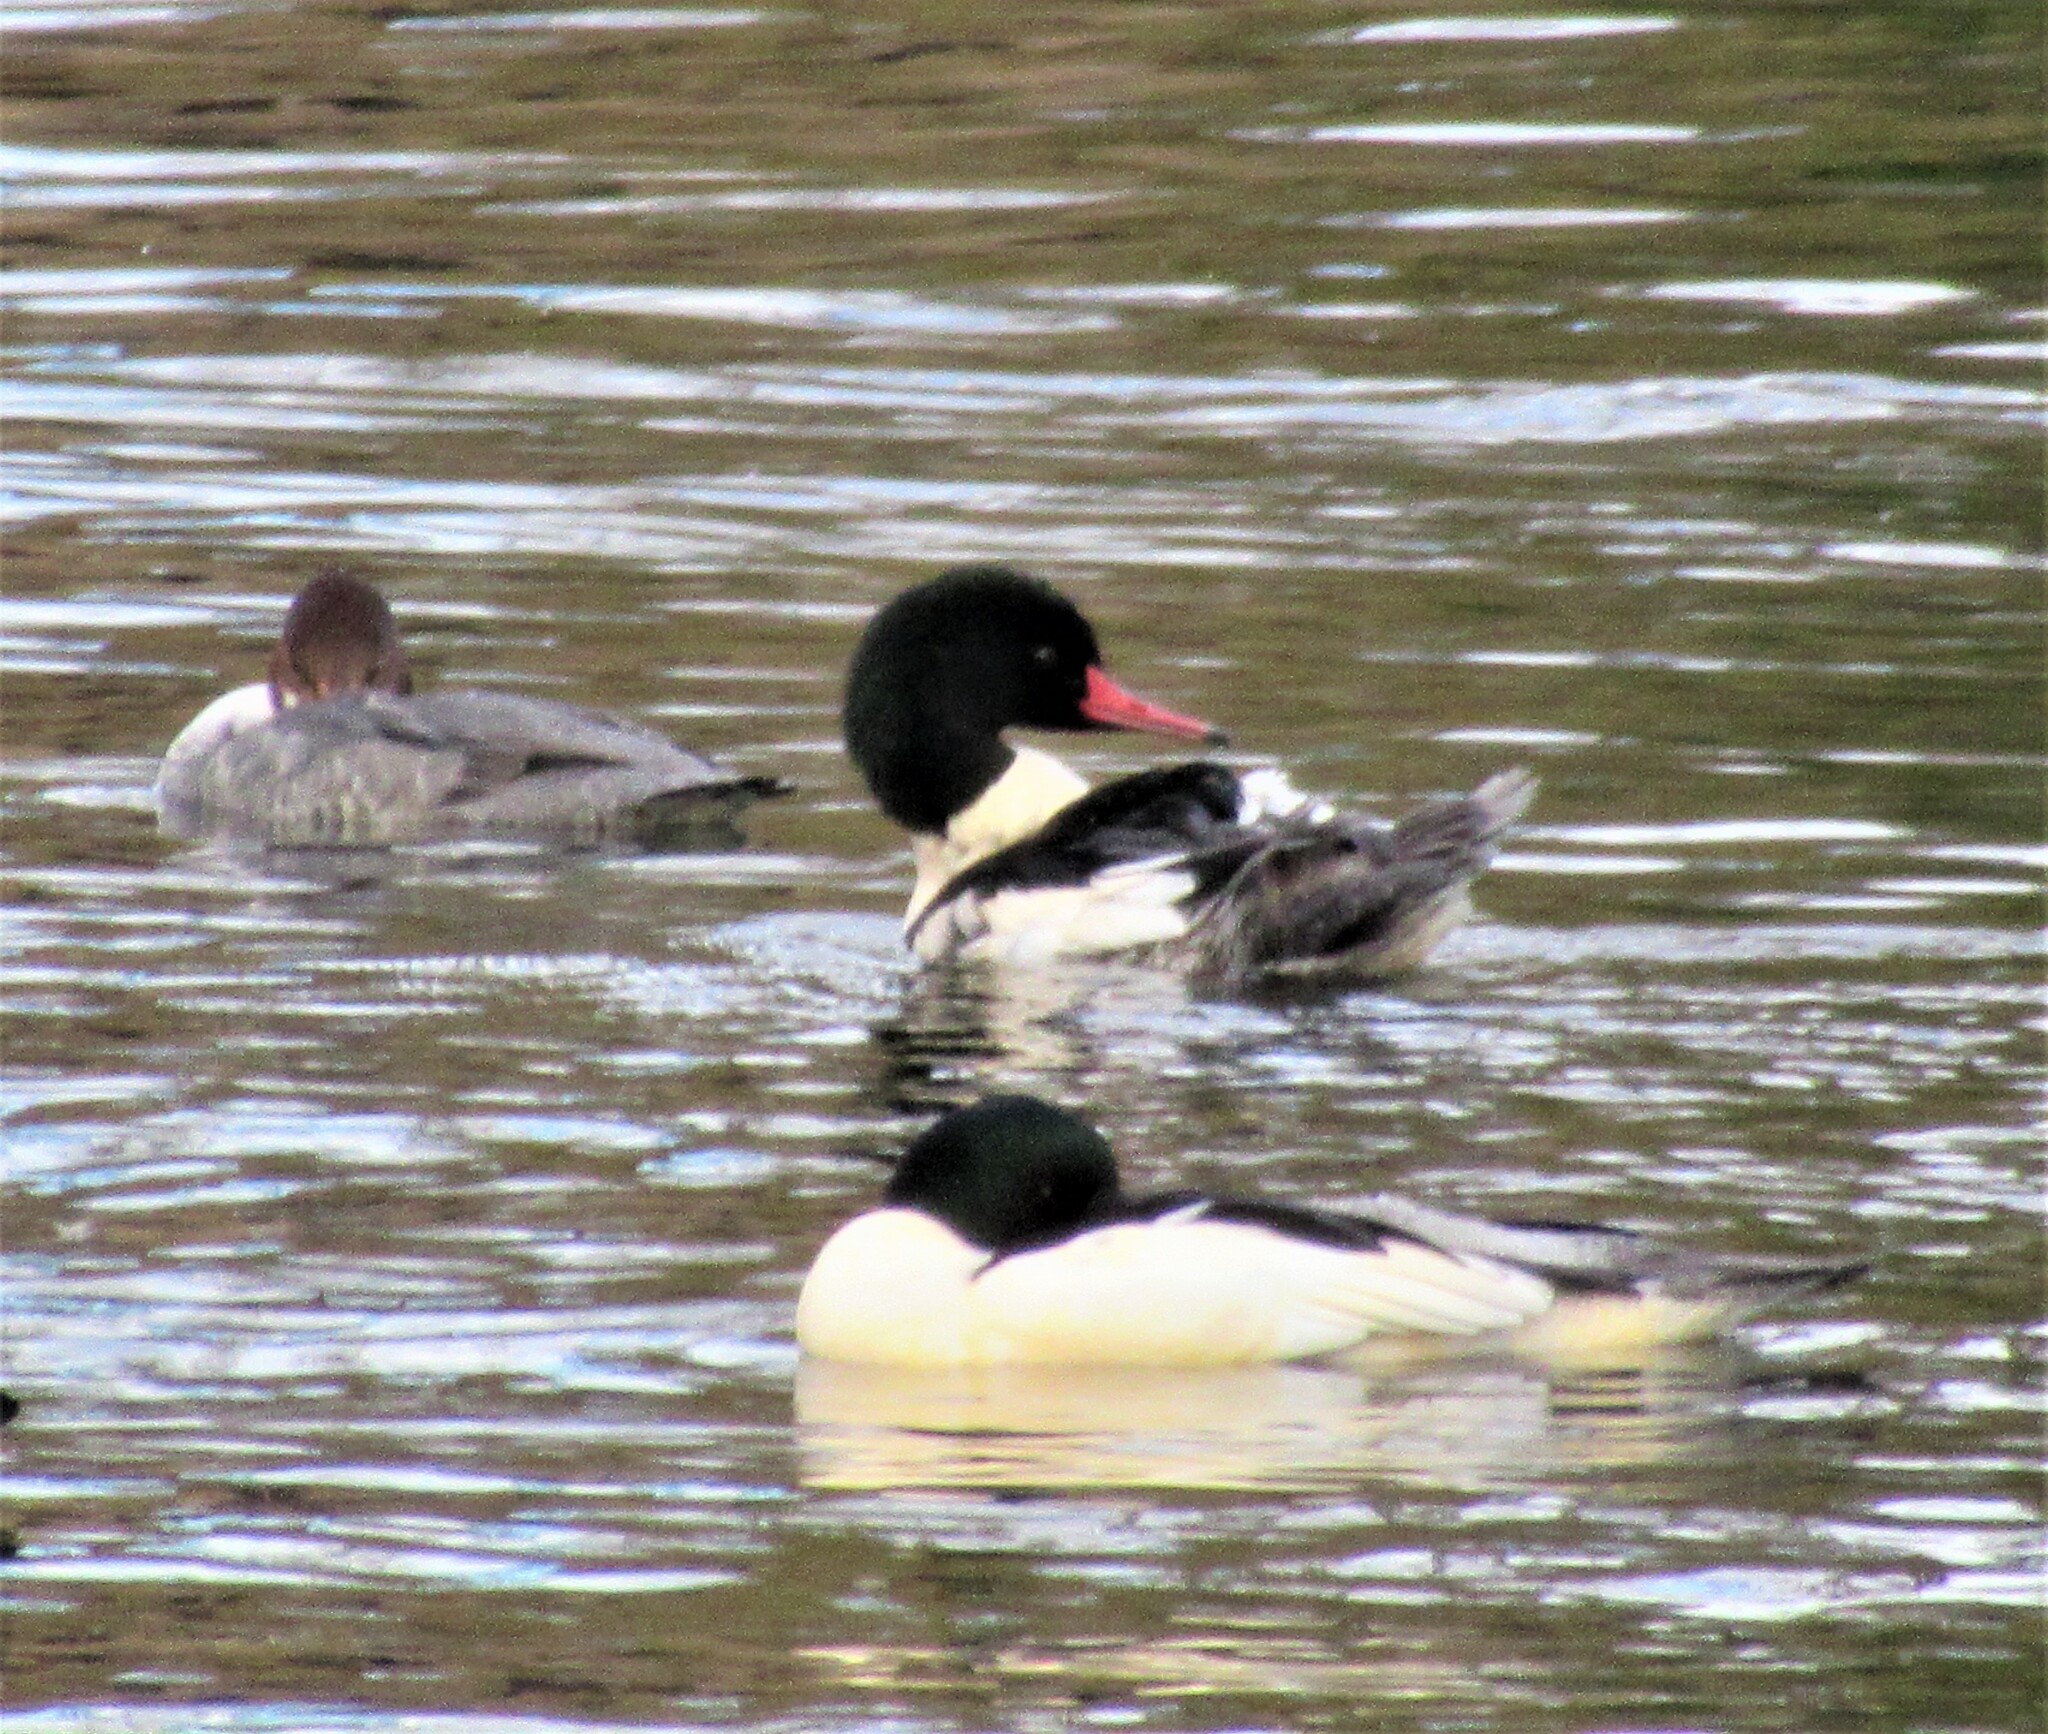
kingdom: Animalia
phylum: Chordata
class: Aves
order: Anseriformes
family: Anatidae
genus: Mergus
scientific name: Mergus merganser
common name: Common merganser
